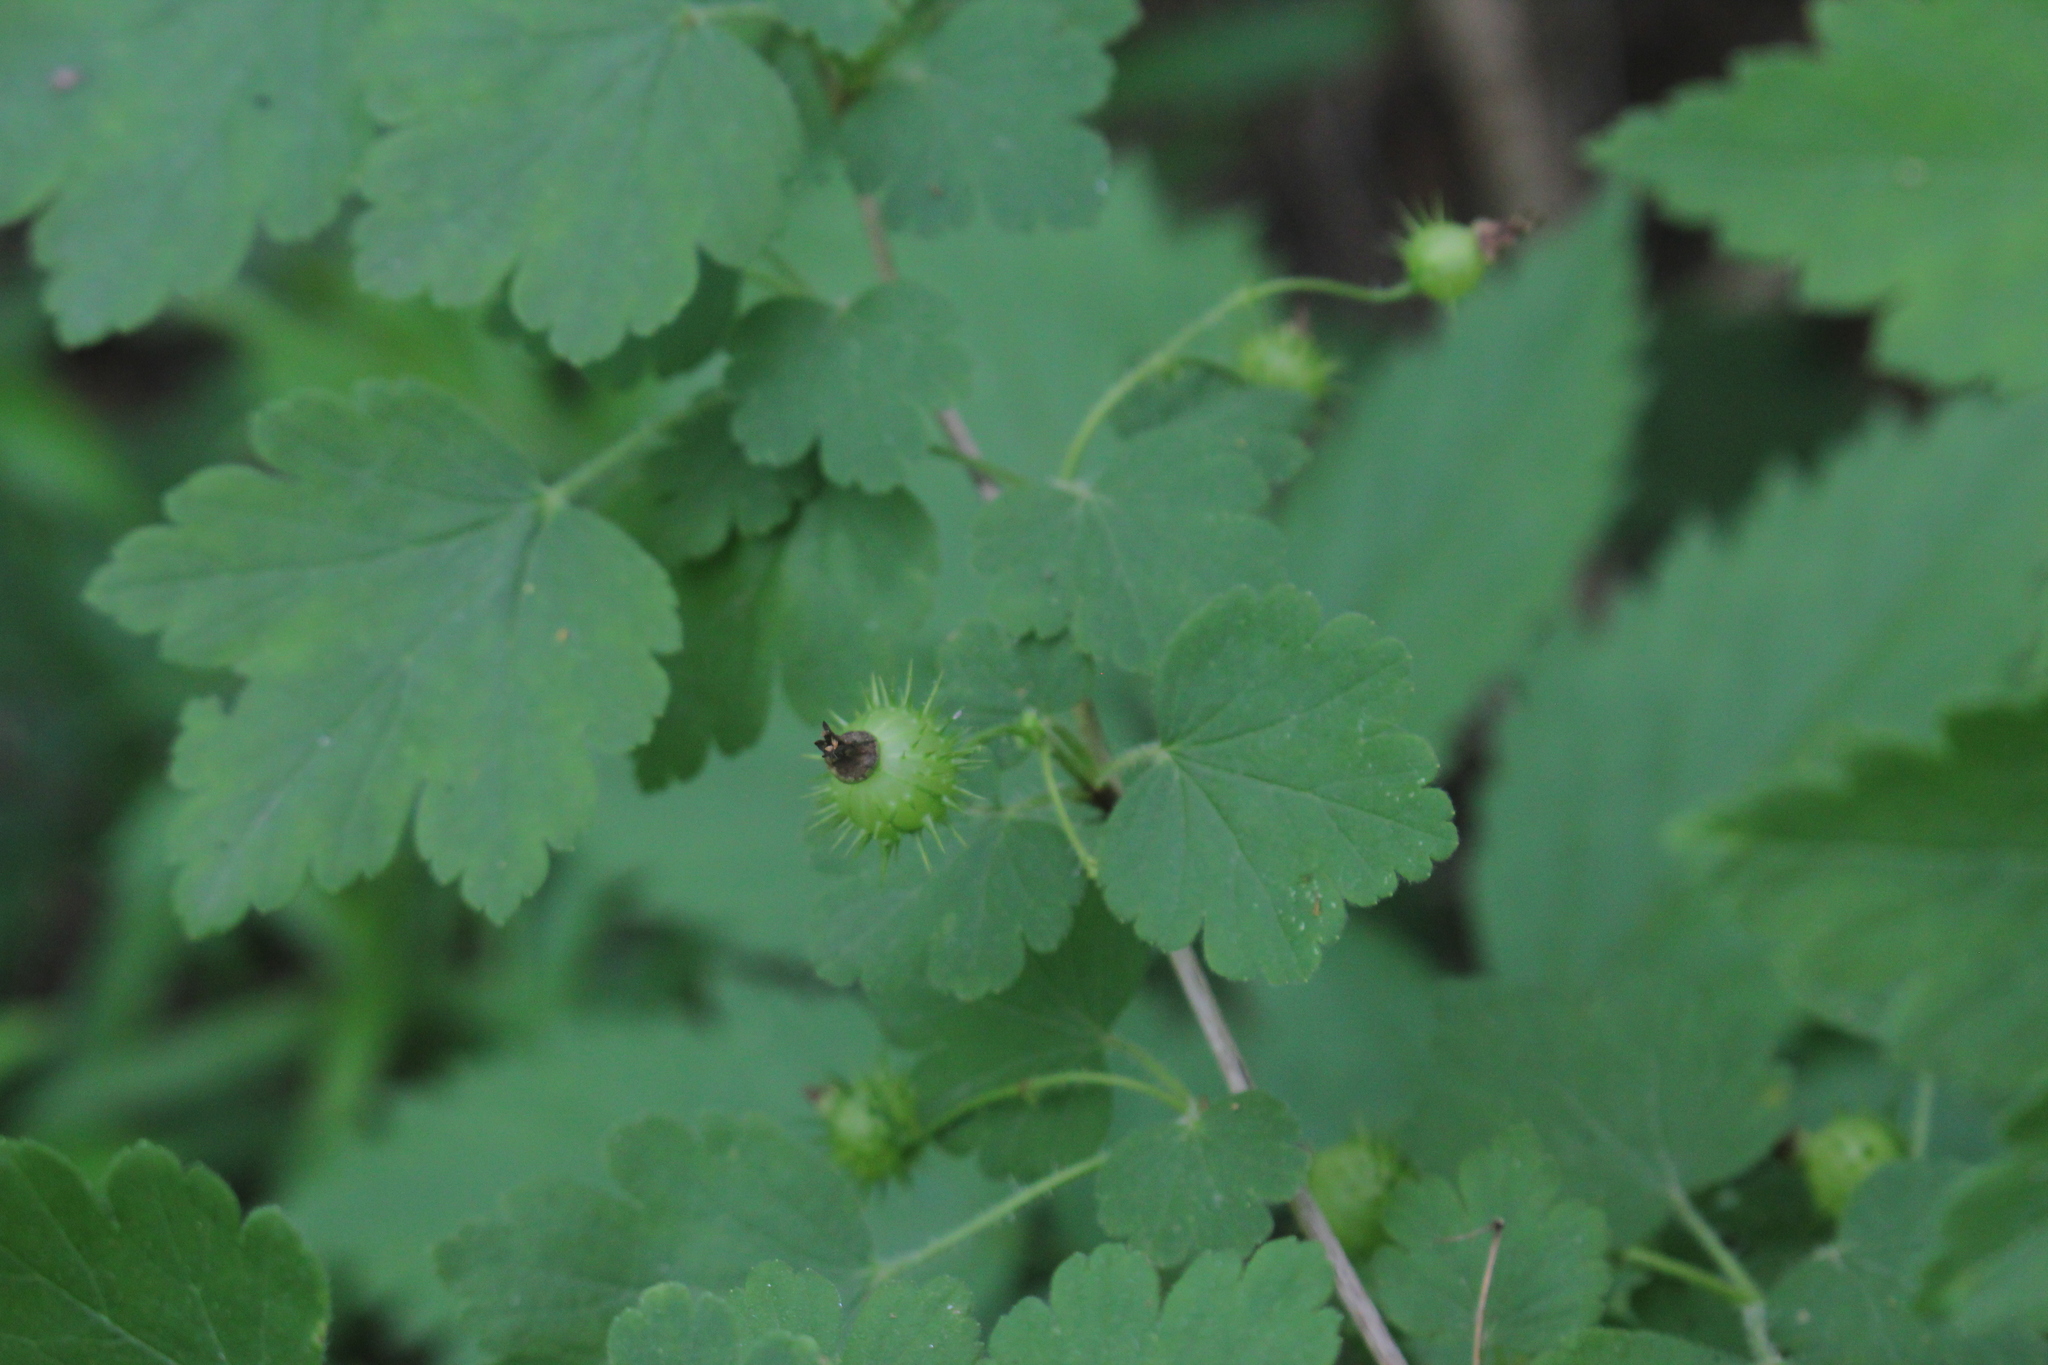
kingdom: Plantae
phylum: Tracheophyta
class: Magnoliopsida
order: Saxifragales
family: Grossulariaceae
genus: Ribes
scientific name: Ribes cynosbati
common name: American gooseberry
